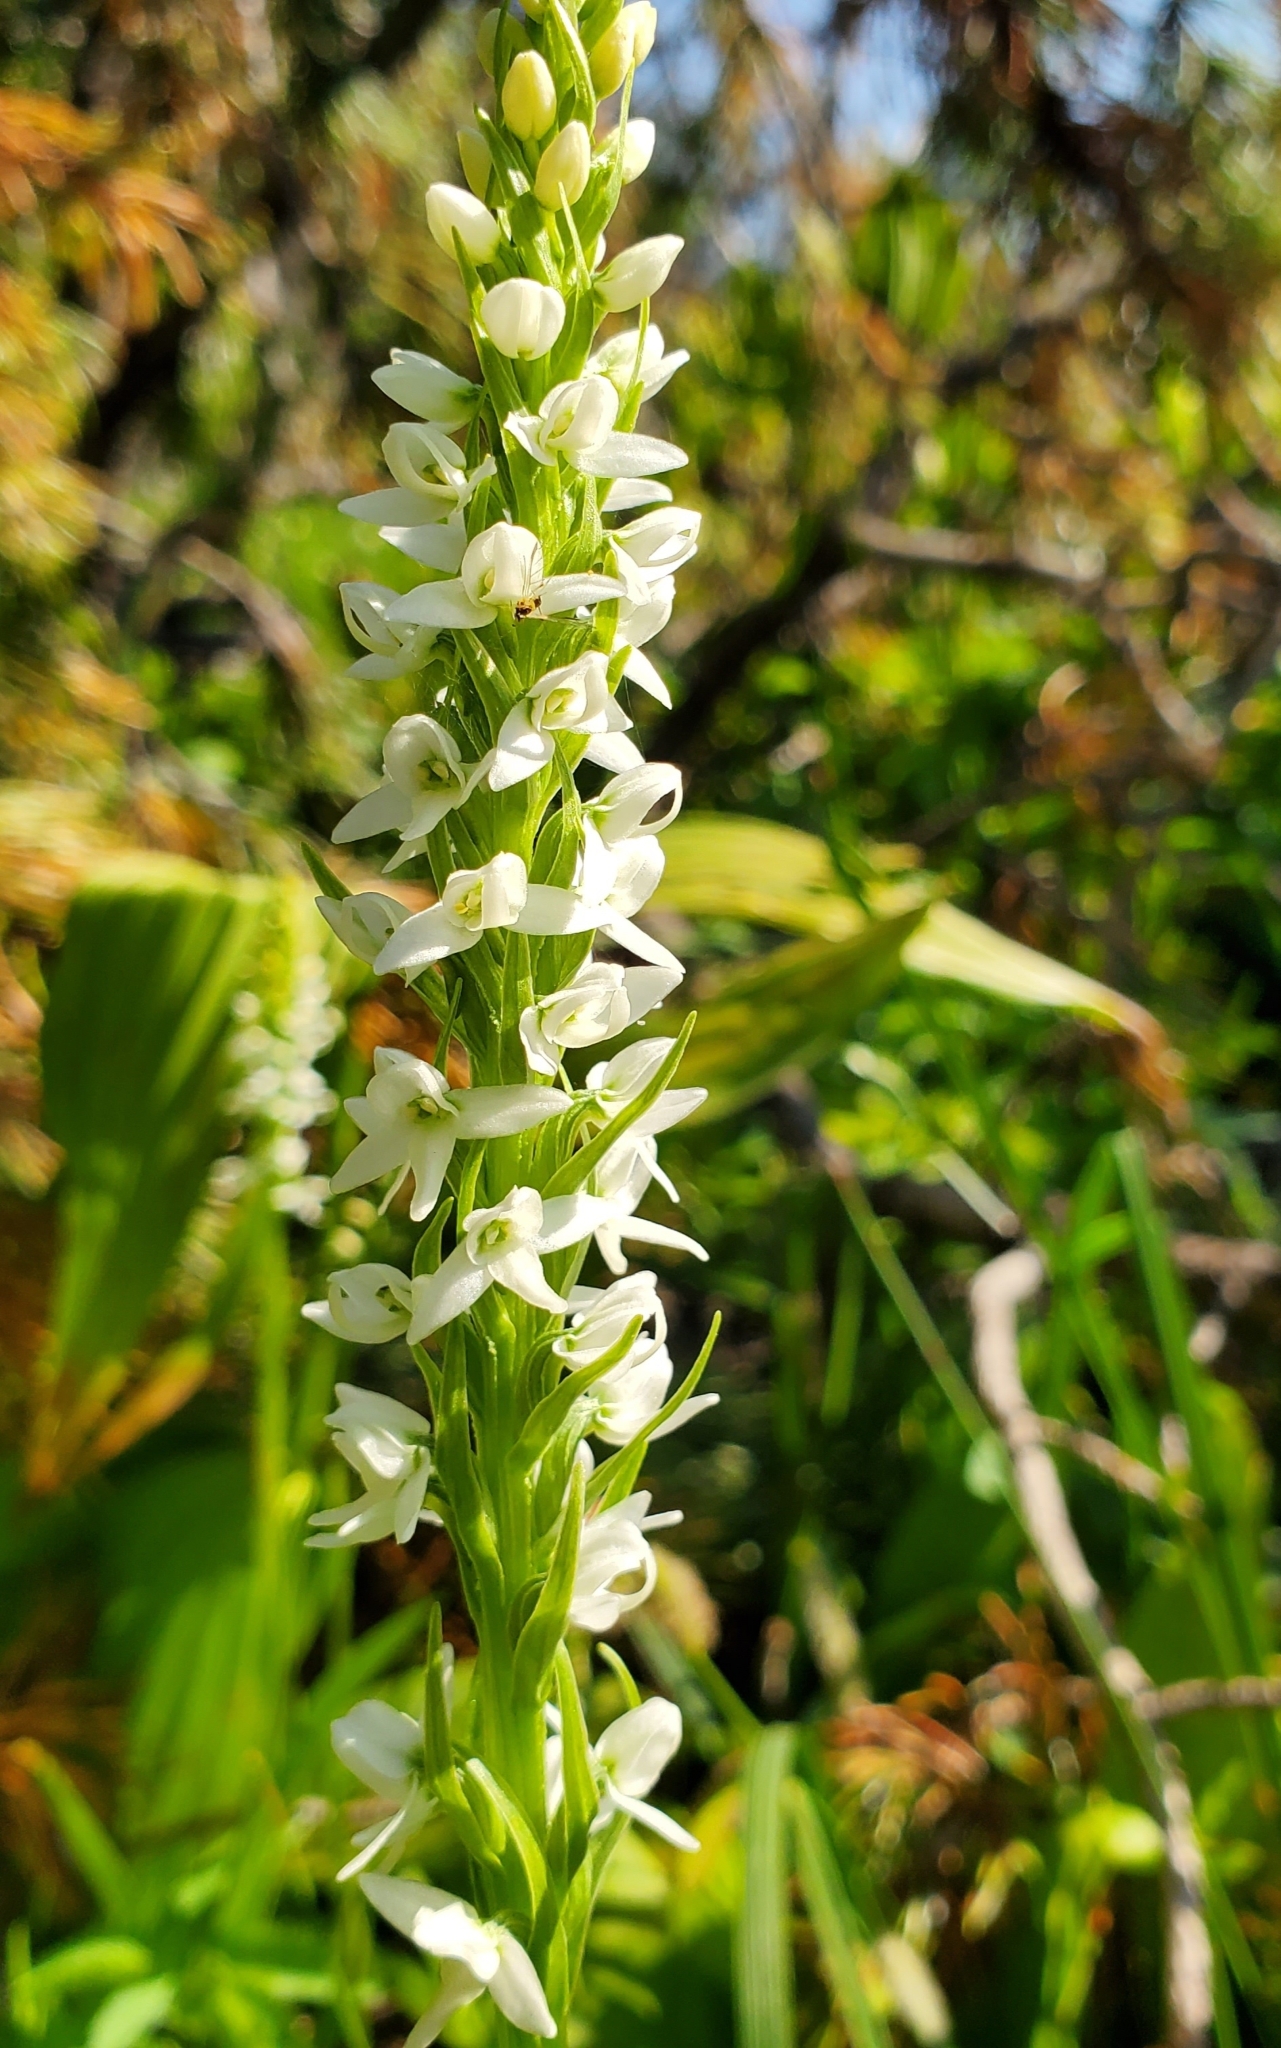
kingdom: Plantae
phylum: Tracheophyta
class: Liliopsida
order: Asparagales
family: Orchidaceae
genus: Platanthera
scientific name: Platanthera dilatata
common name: Bog candles
